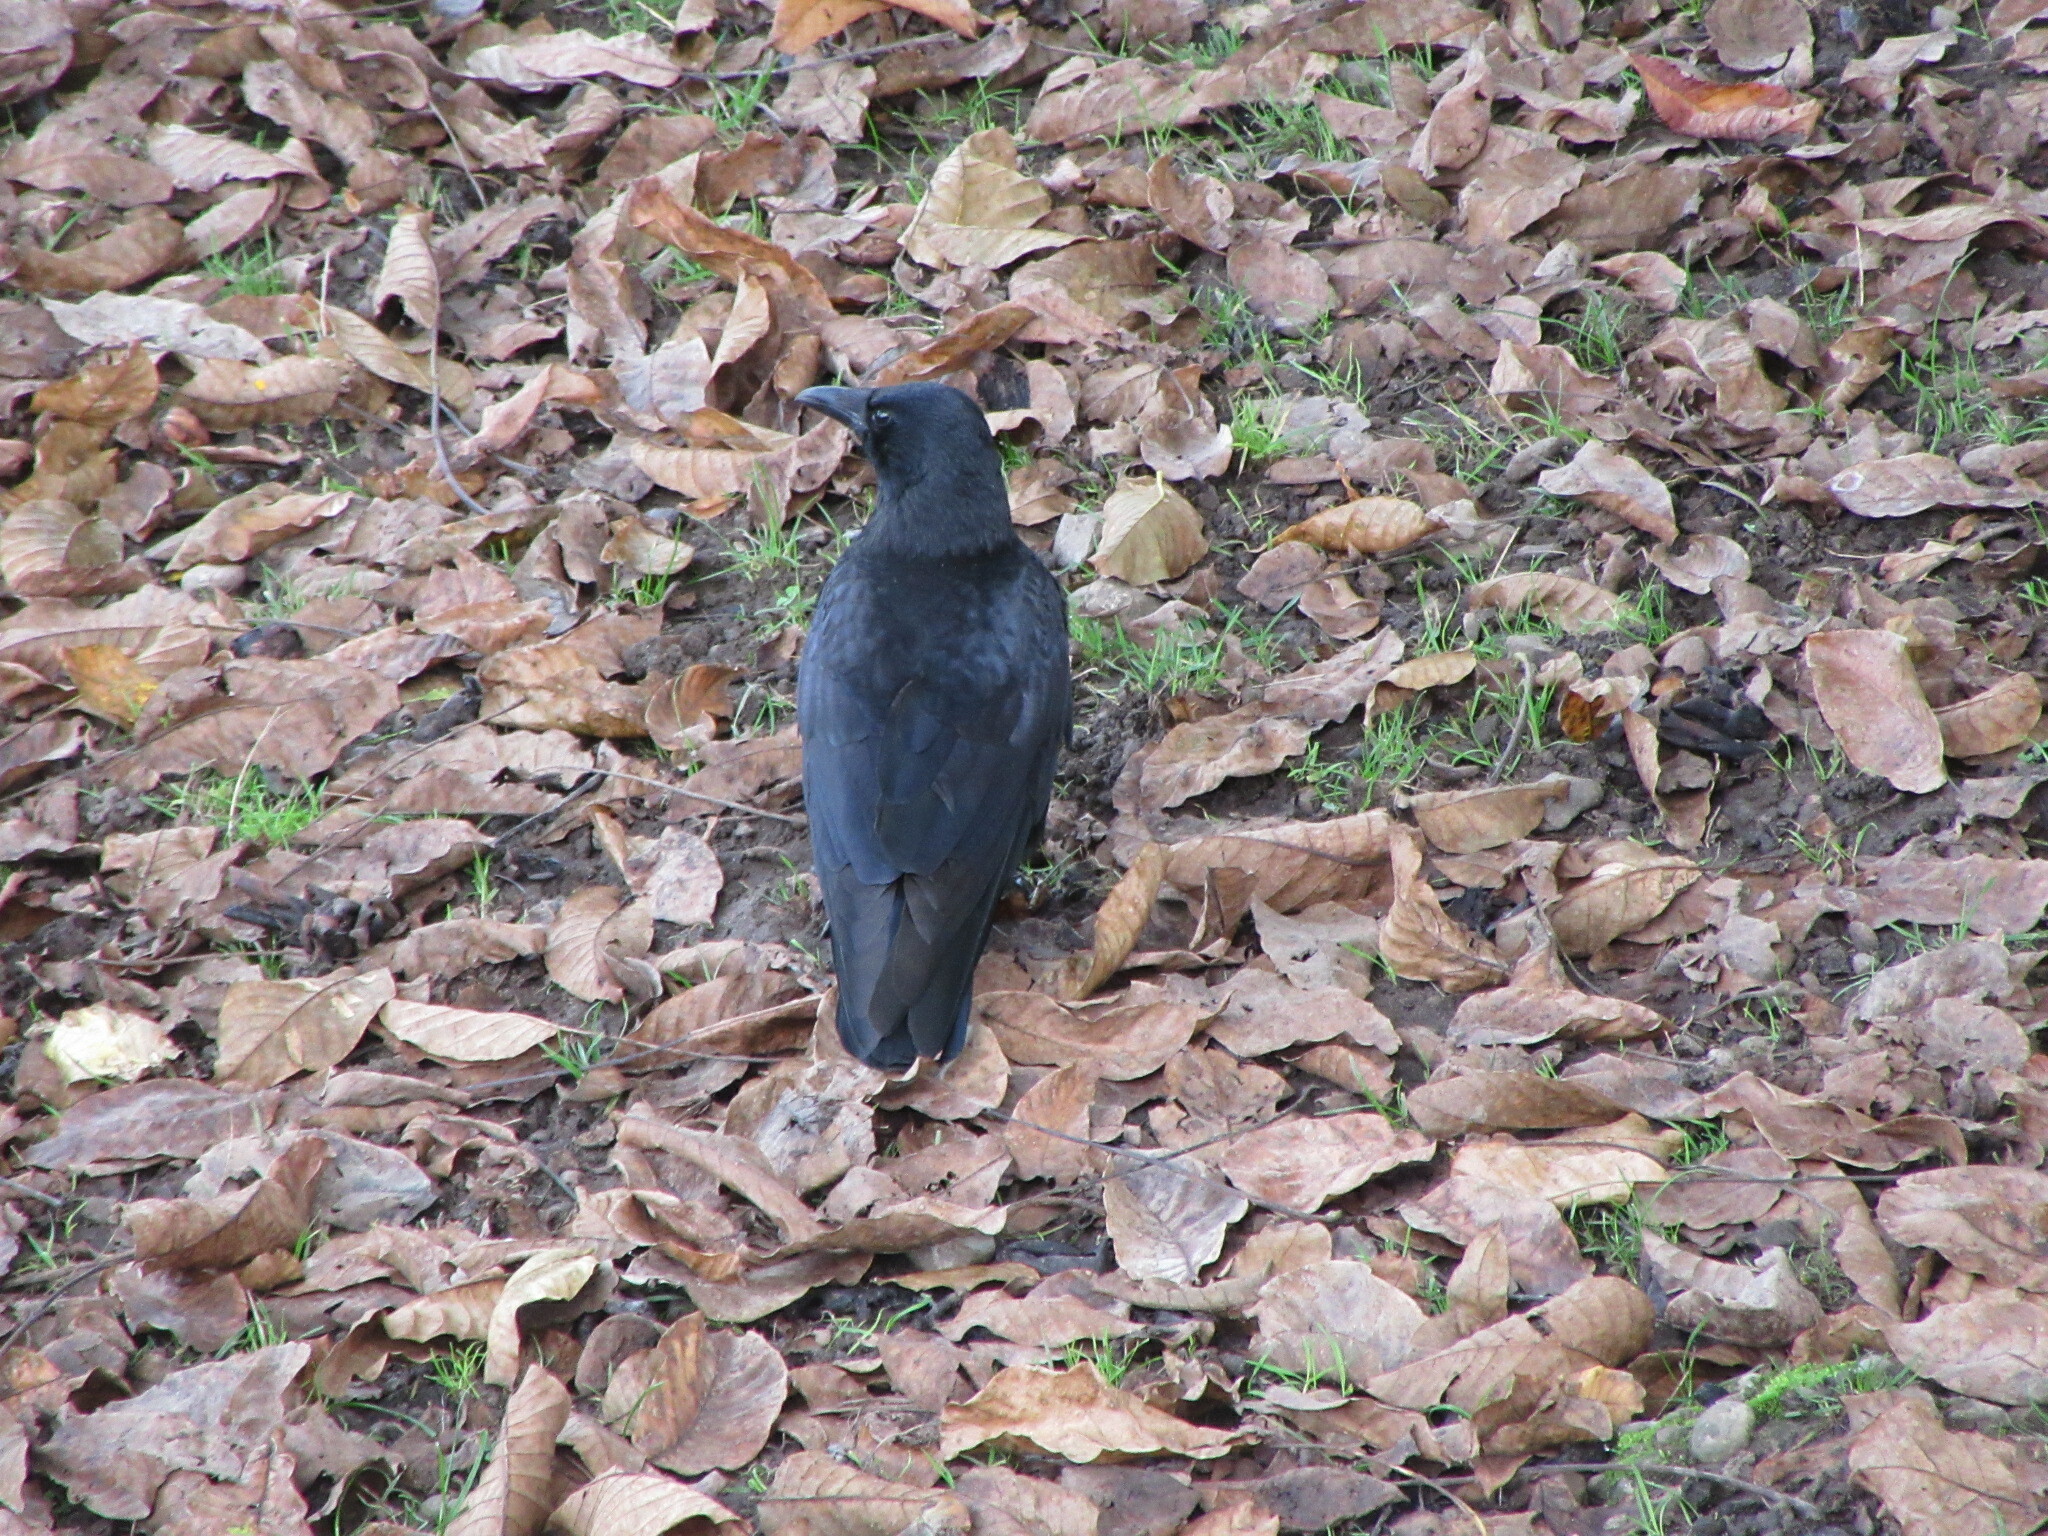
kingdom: Animalia
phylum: Chordata
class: Aves
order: Passeriformes
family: Corvidae
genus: Corvus
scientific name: Corvus corone
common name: Carrion crow
